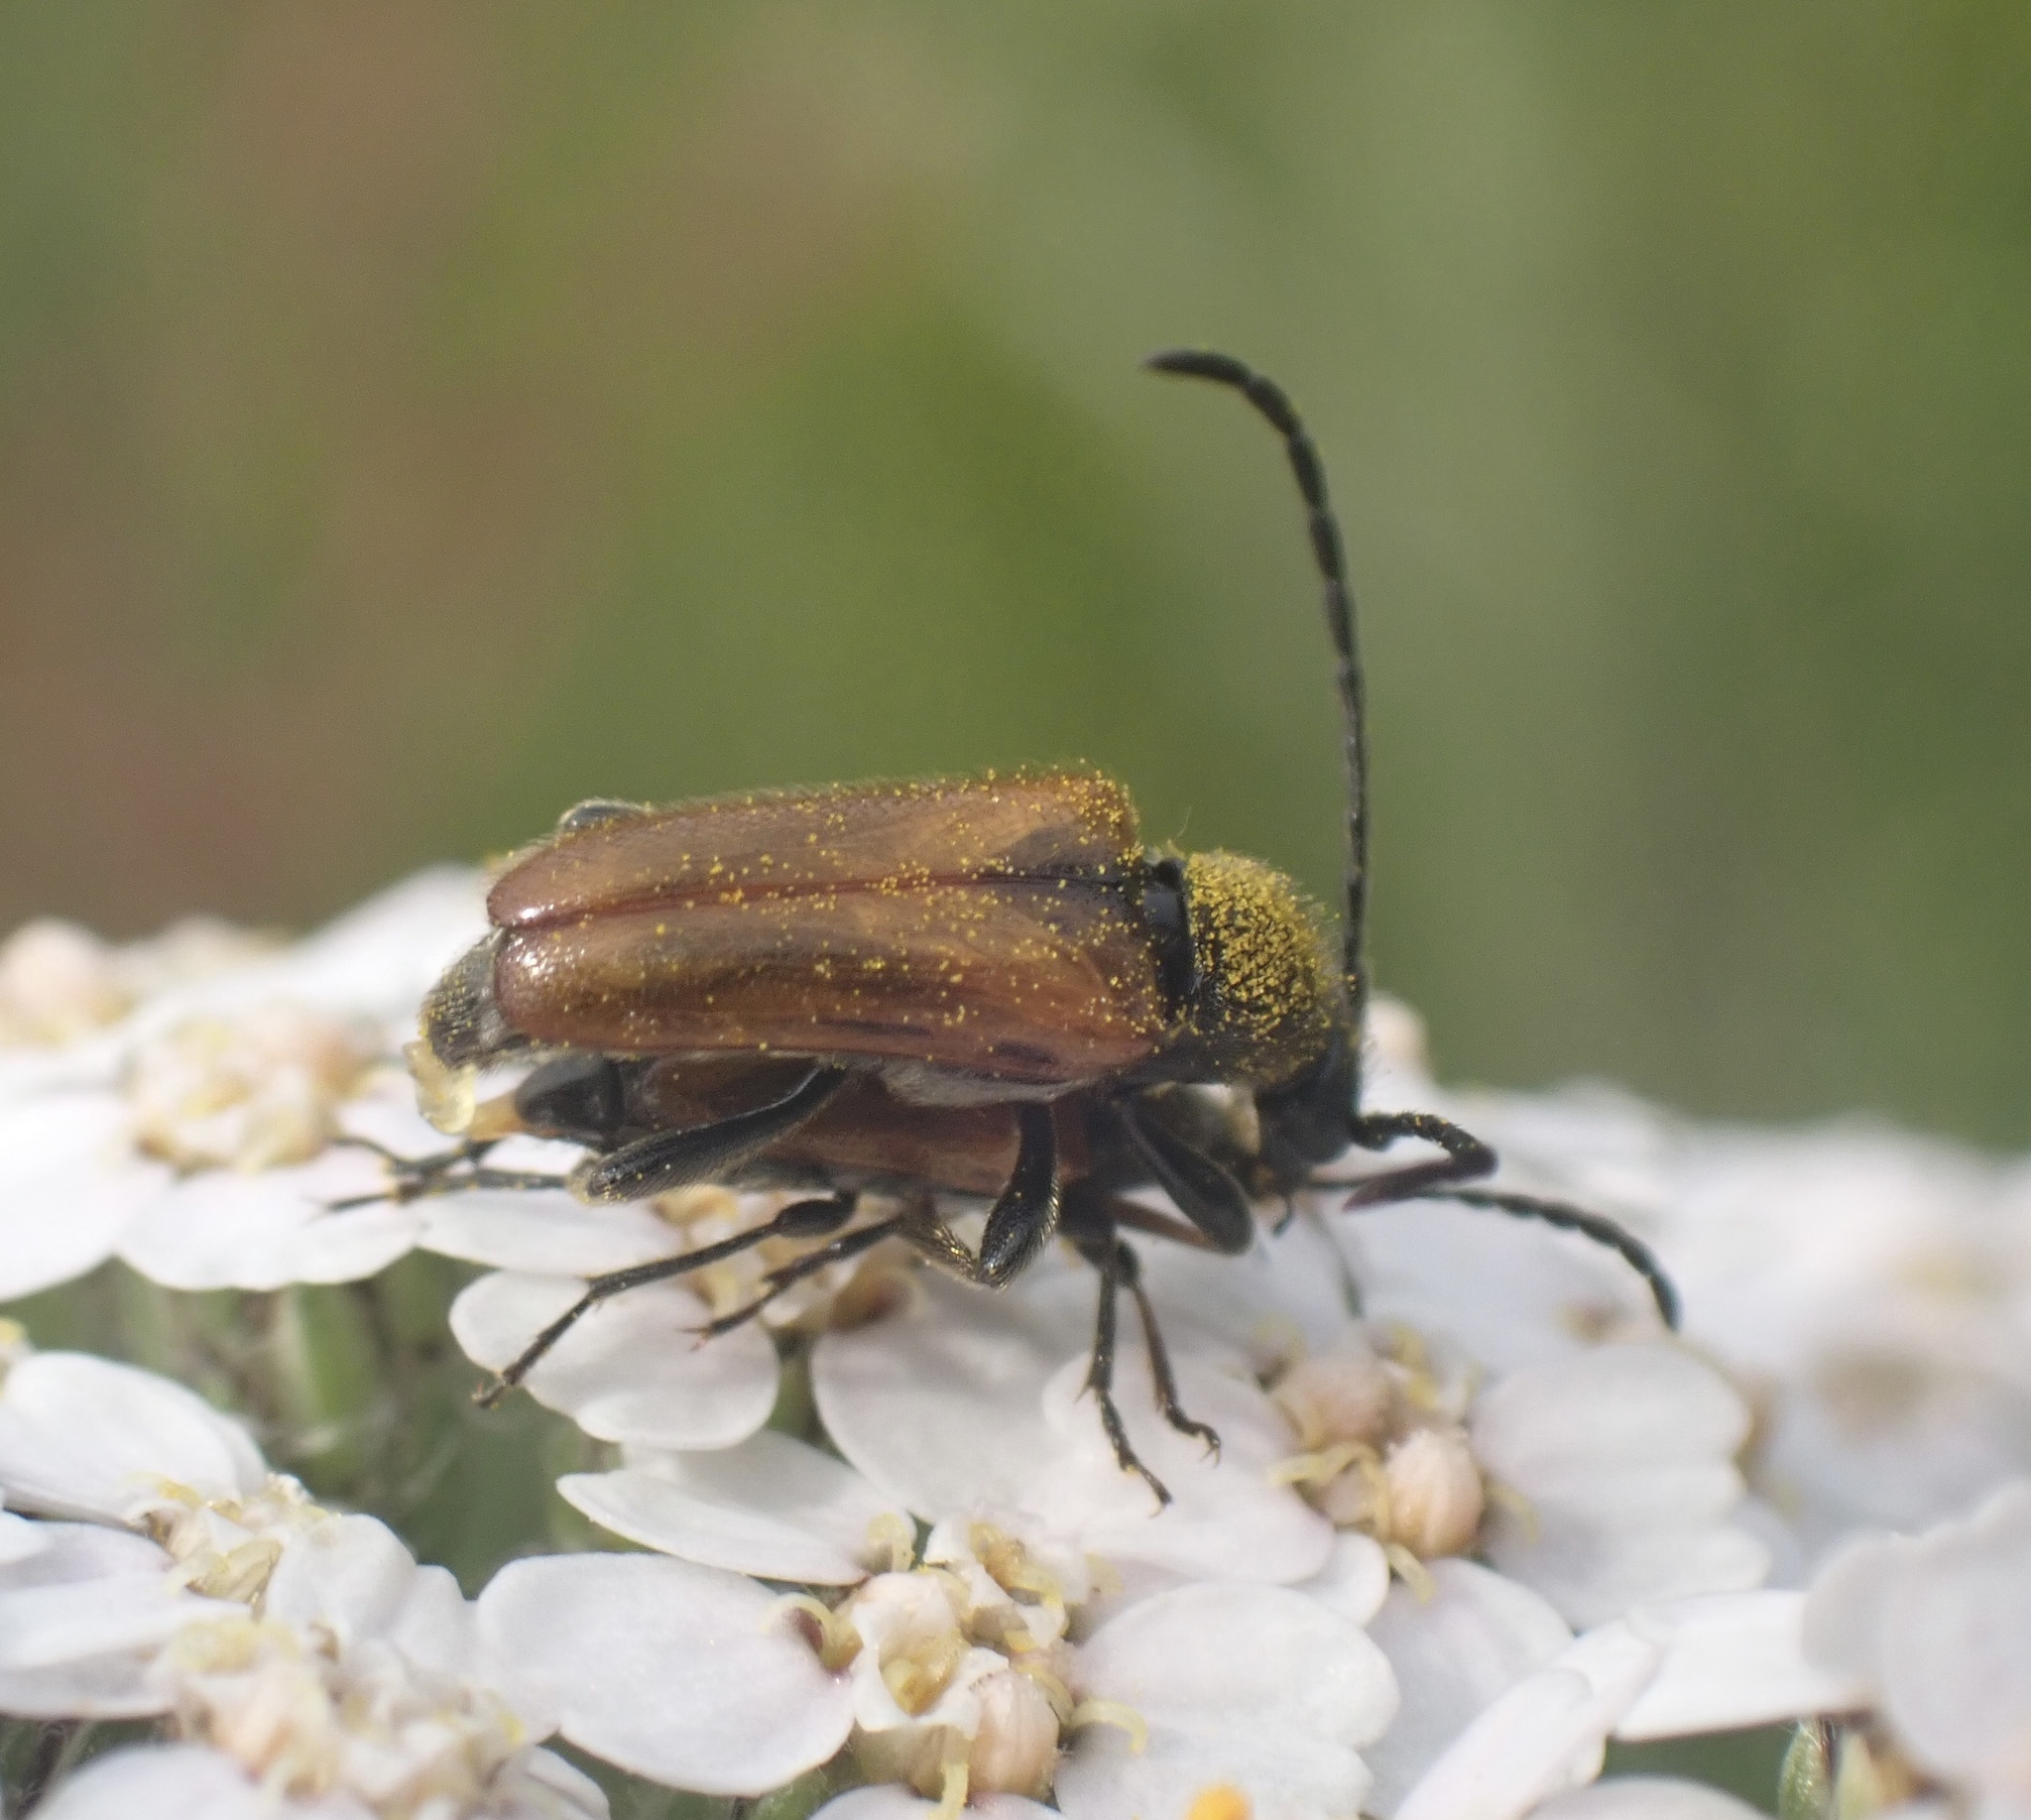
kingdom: Animalia
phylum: Arthropoda
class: Insecta
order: Coleoptera
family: Cerambycidae
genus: Pseudovadonia
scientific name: Pseudovadonia livida
